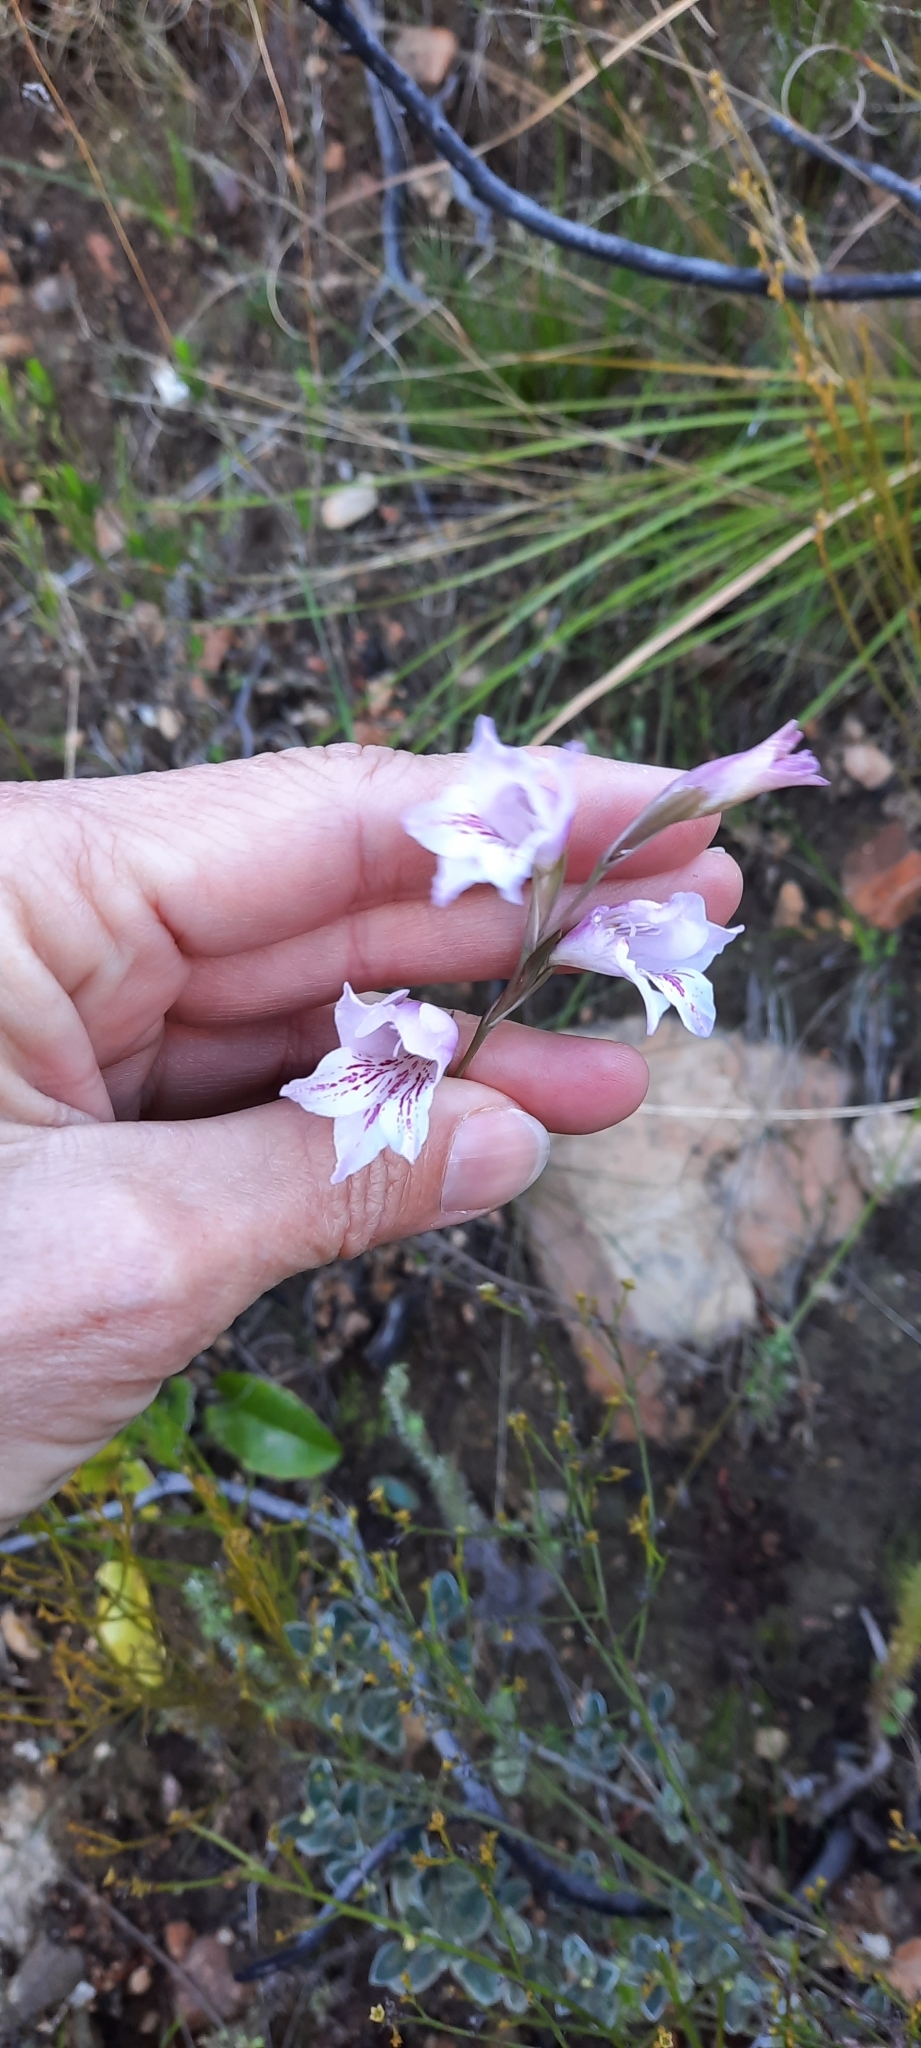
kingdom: Plantae
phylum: Tracheophyta
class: Liliopsida
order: Asparagales
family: Iridaceae
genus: Gladiolus
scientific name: Gladiolus hirsutus
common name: Small pink afrikaner
